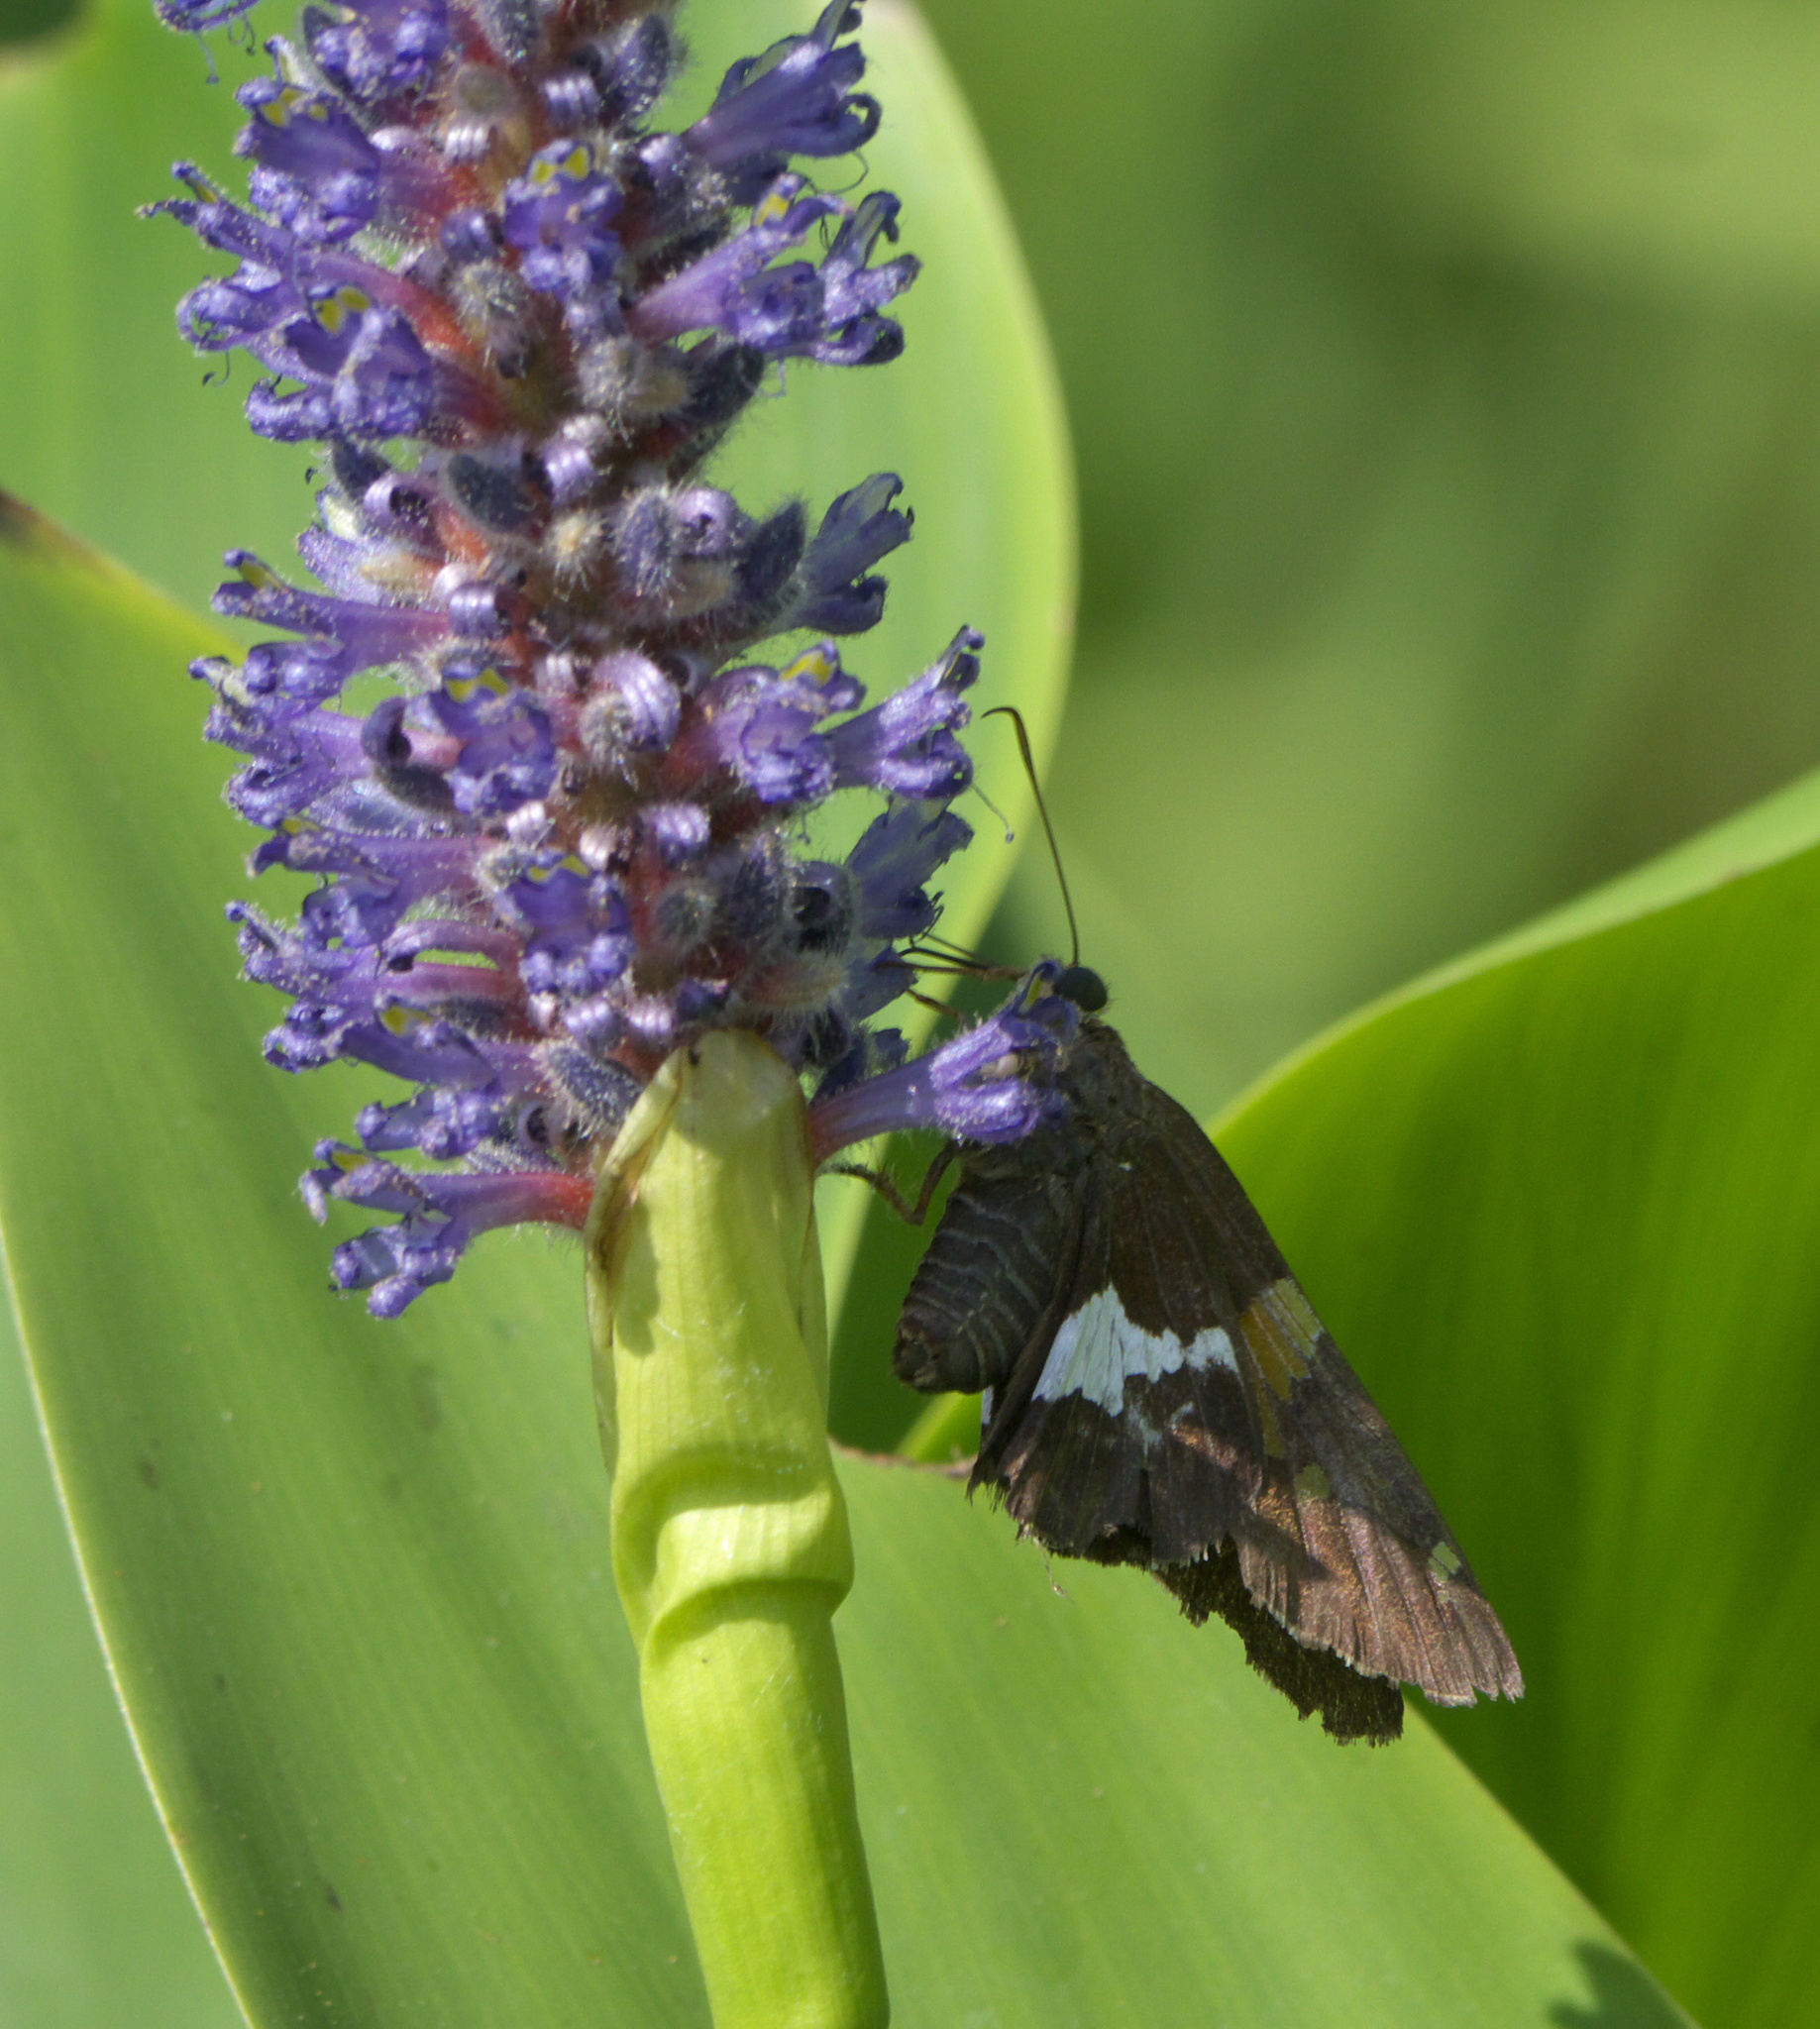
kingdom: Animalia
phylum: Arthropoda
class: Insecta
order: Lepidoptera
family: Hesperiidae
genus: Epargyreus
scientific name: Epargyreus clarus
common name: Silver-spotted skipper
